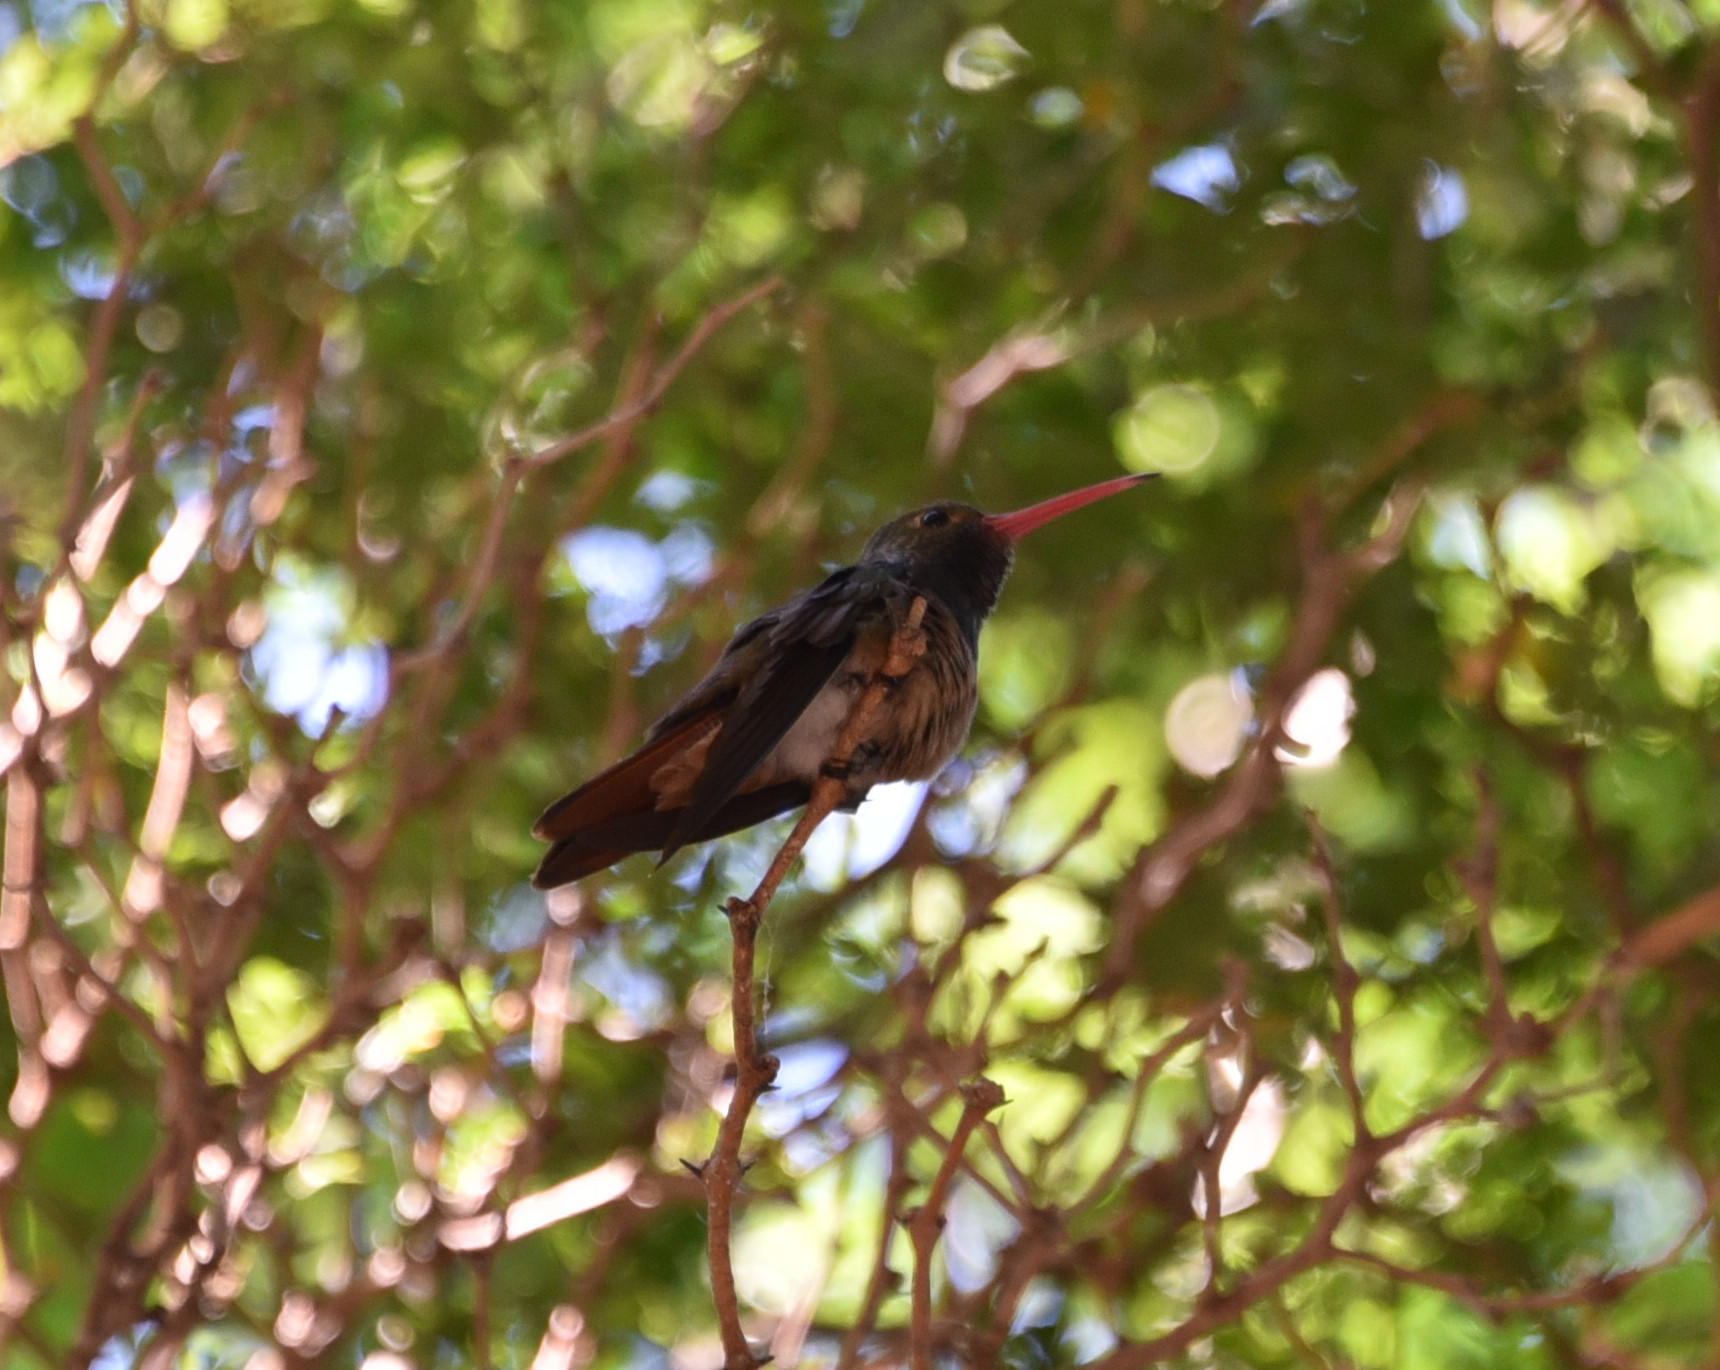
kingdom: Animalia
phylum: Chordata
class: Aves
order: Apodiformes
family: Trochilidae
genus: Amazilia
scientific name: Amazilia yucatanensis
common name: Buff-bellied hummingbird
